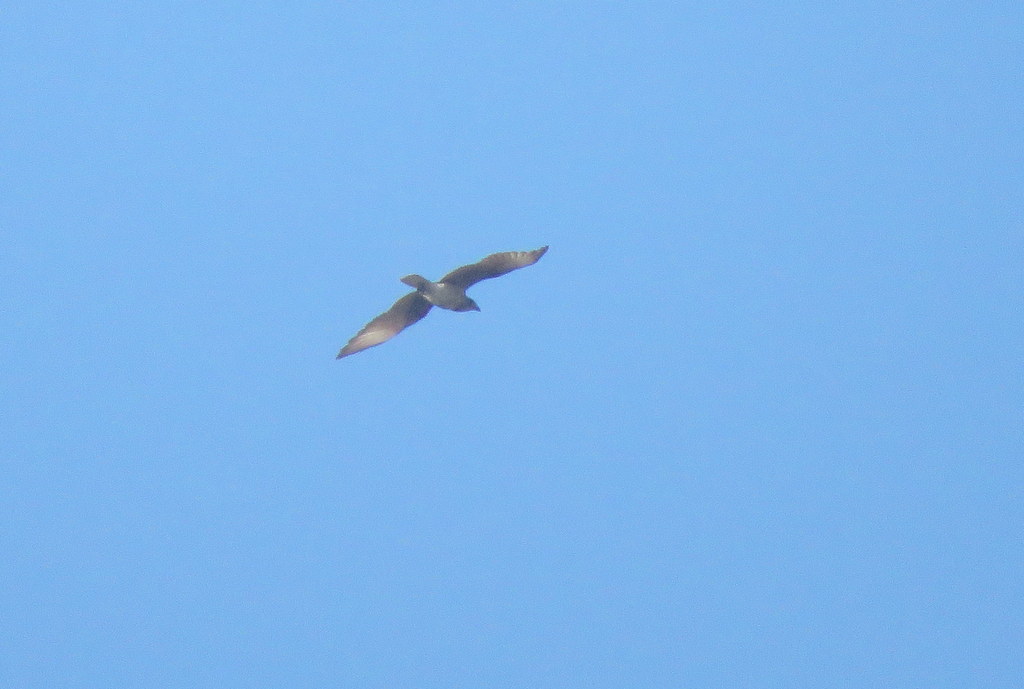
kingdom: Animalia
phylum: Chordata
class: Aves
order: Falconiformes
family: Falconidae
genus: Daptrius
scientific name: Daptrius
